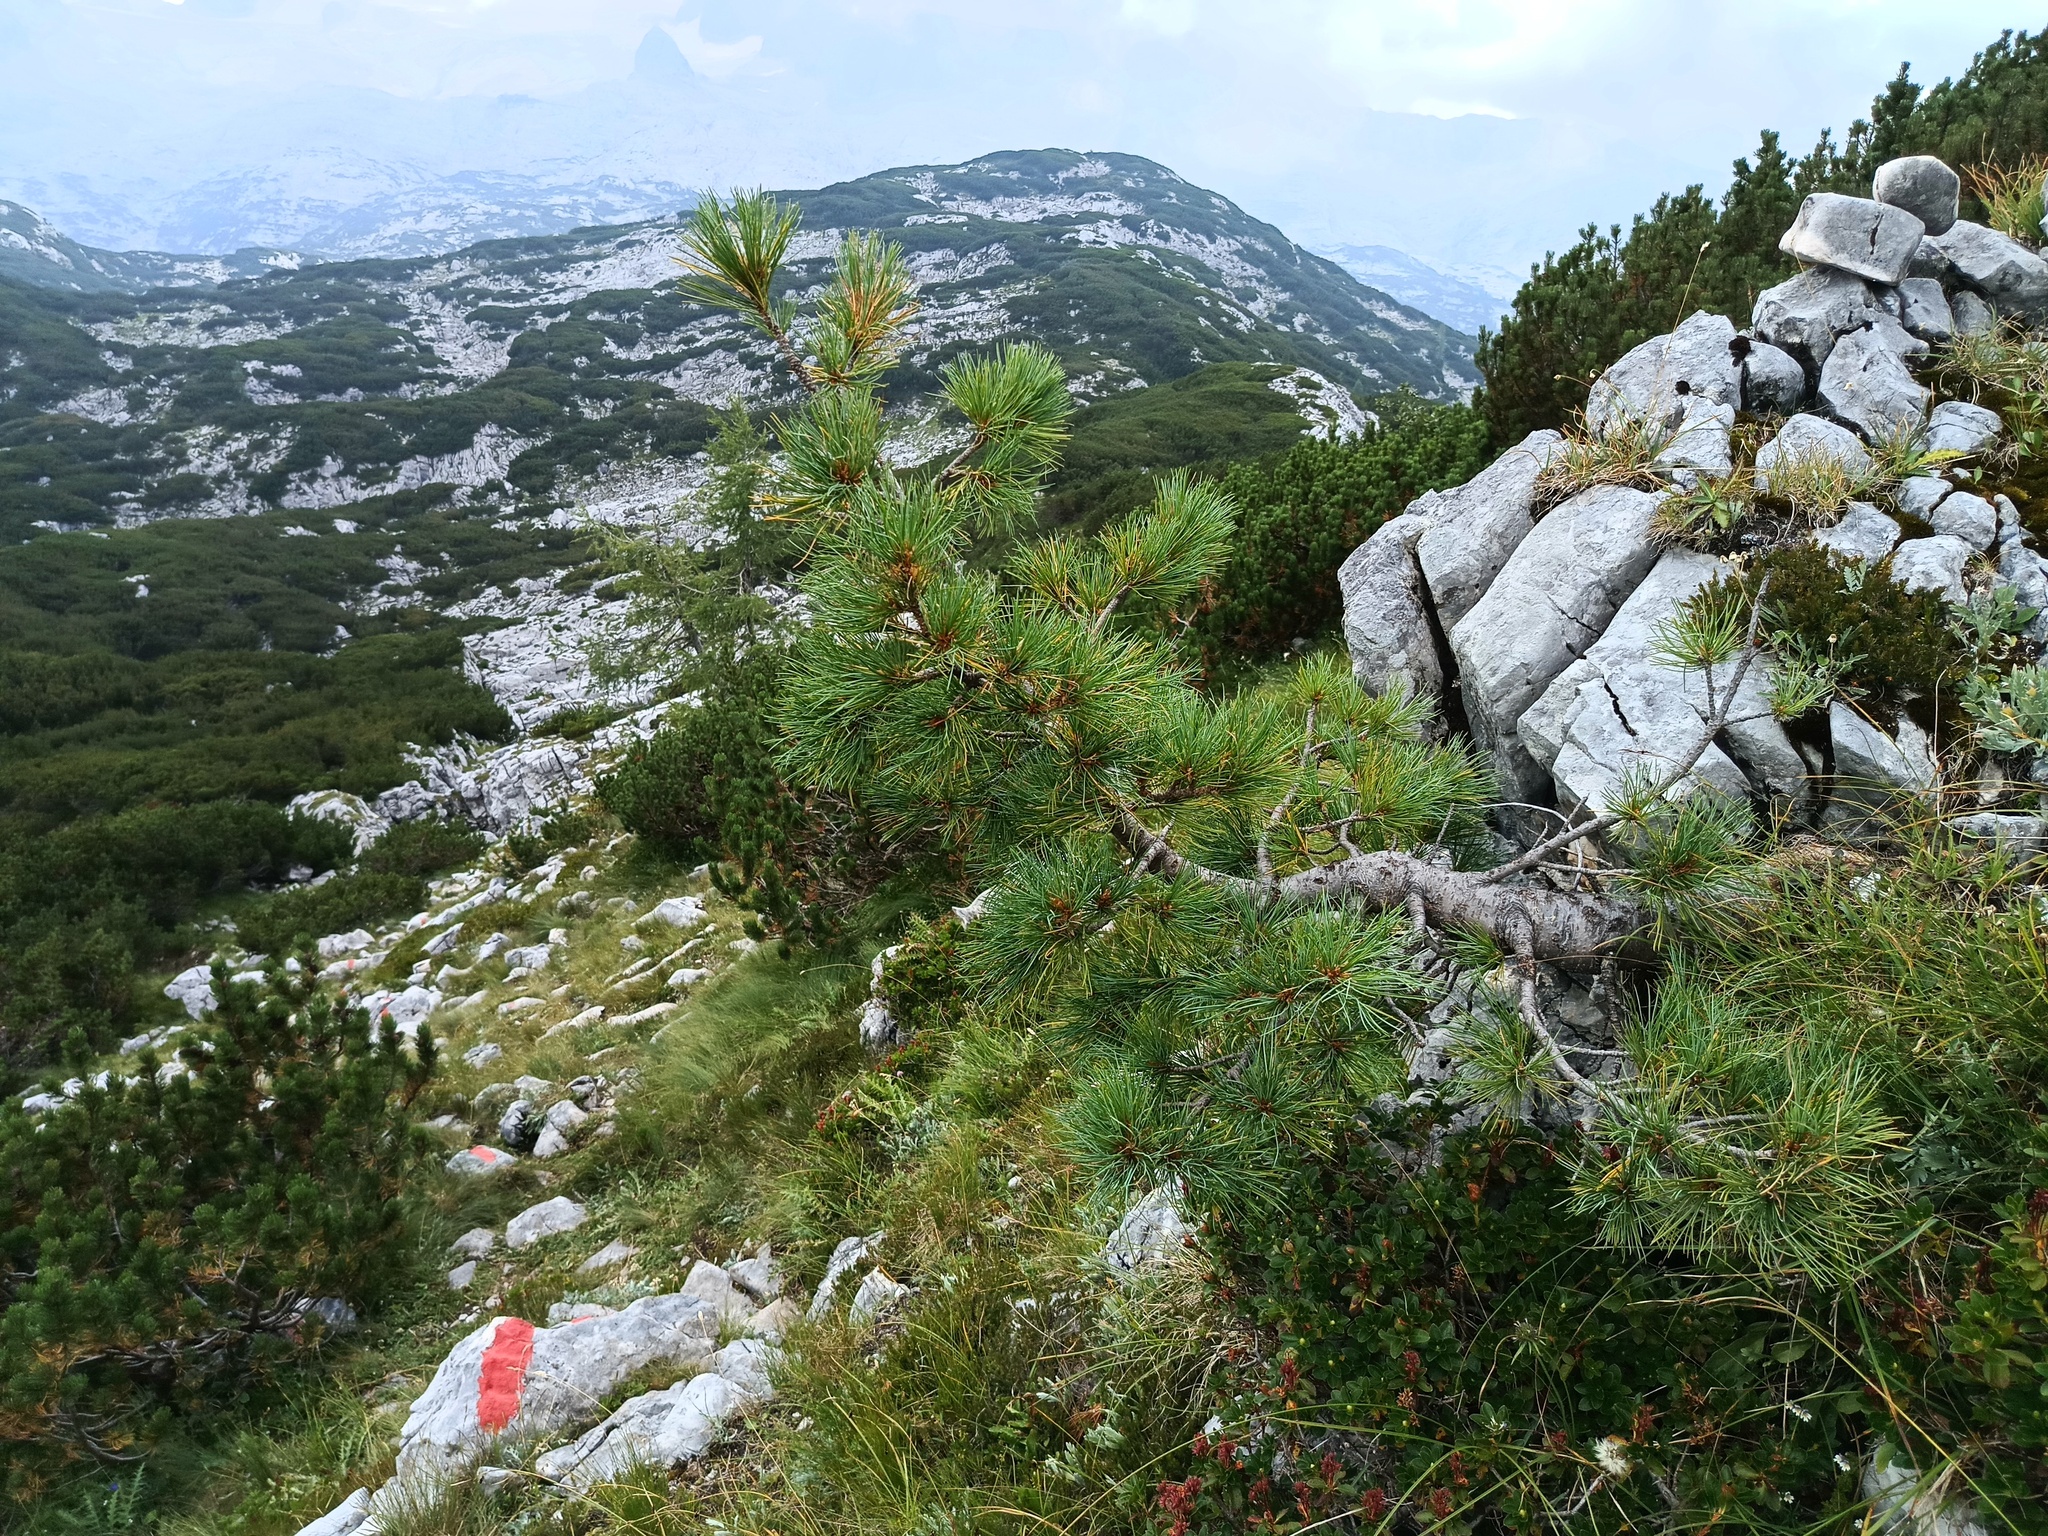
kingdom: Plantae
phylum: Tracheophyta
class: Pinopsida
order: Pinales
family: Pinaceae
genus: Pinus
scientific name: Pinus cembra
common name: Arolla pine
